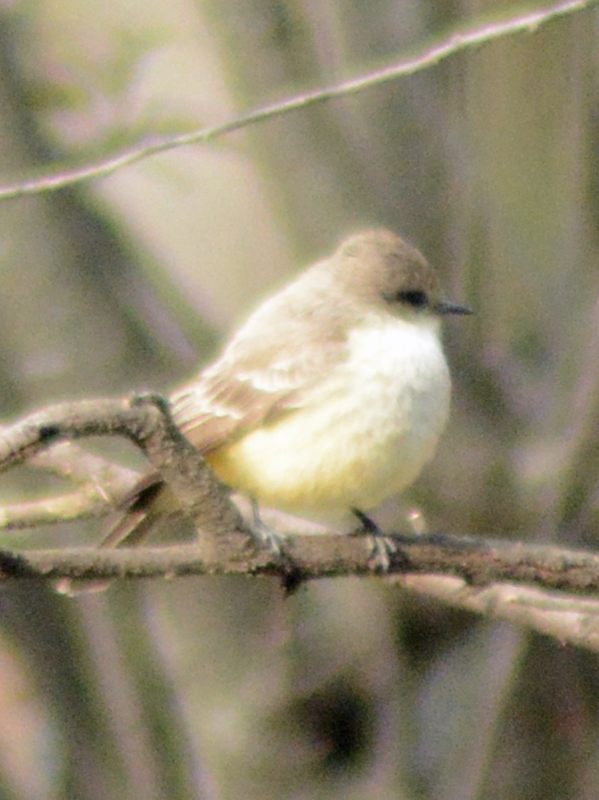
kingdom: Animalia
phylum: Chordata
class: Aves
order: Passeriformes
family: Tyrannidae
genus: Pyrocephalus
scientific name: Pyrocephalus rubinus
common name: Vermilion flycatcher
